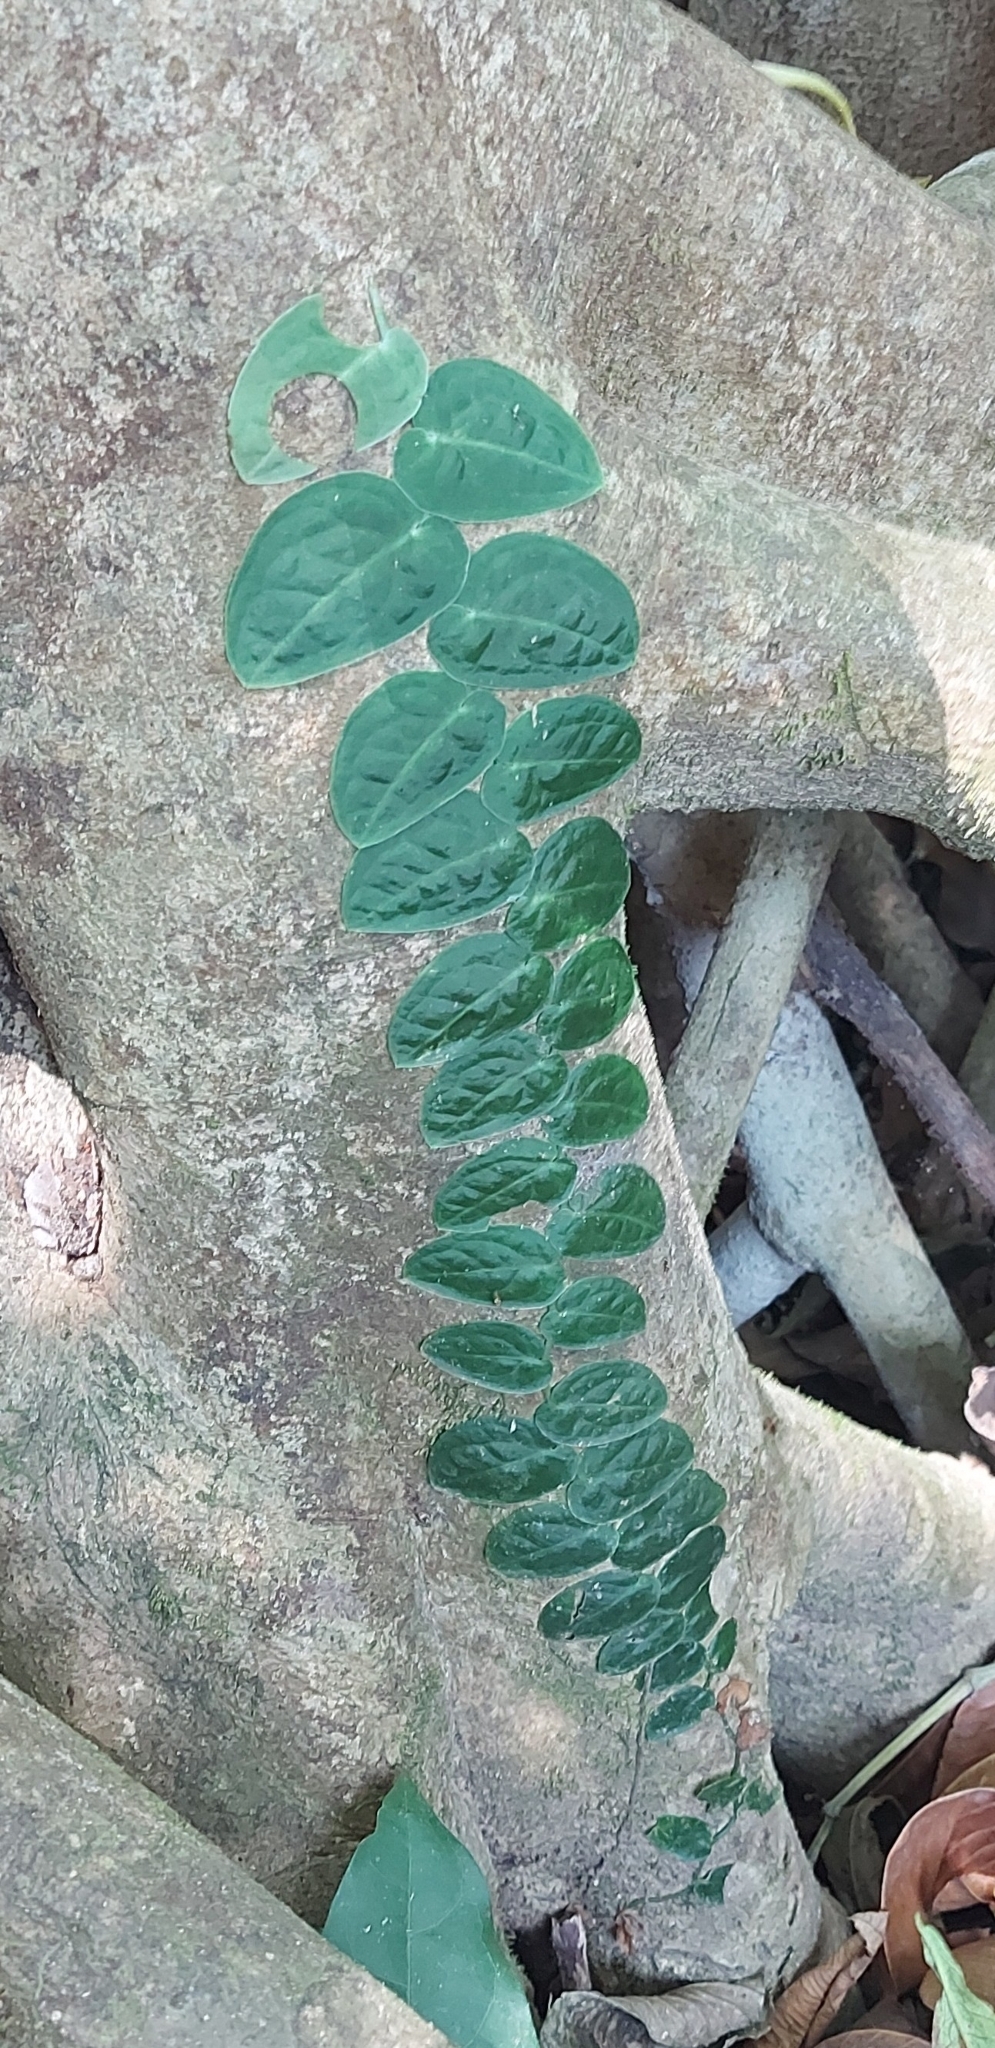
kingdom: Plantae
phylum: Tracheophyta
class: Liliopsida
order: Alismatales
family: Araceae
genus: Monstera
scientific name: Monstera dubia
